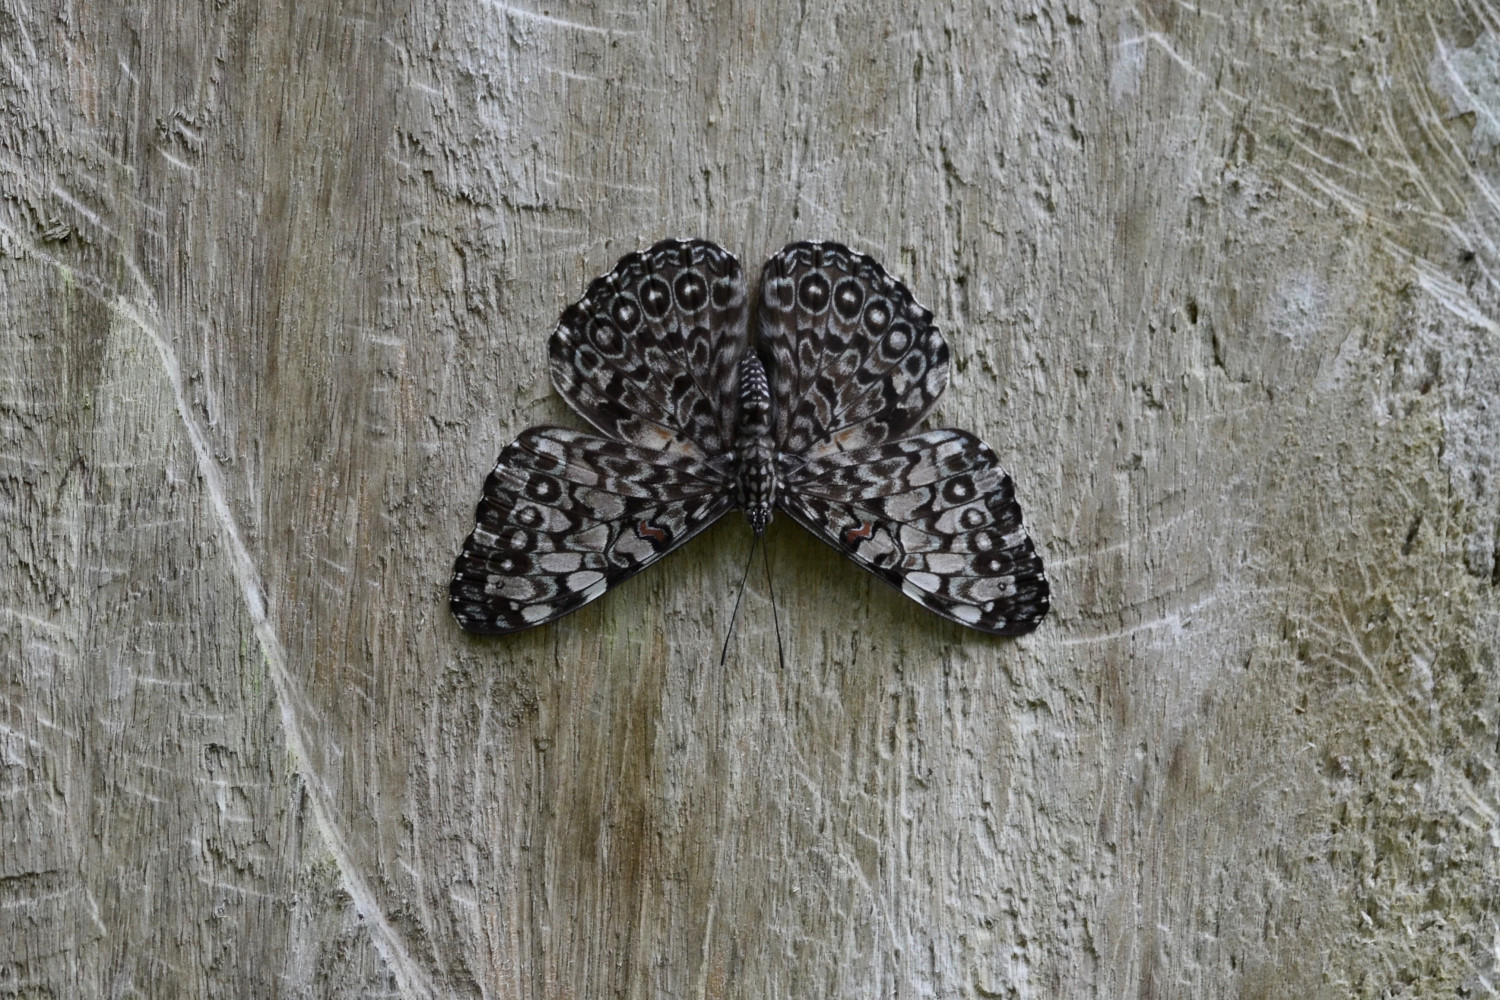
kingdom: Animalia
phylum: Arthropoda
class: Insecta
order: Lepidoptera
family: Nymphalidae
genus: Hamadryas
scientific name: Hamadryas feronia
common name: Variable cracker
